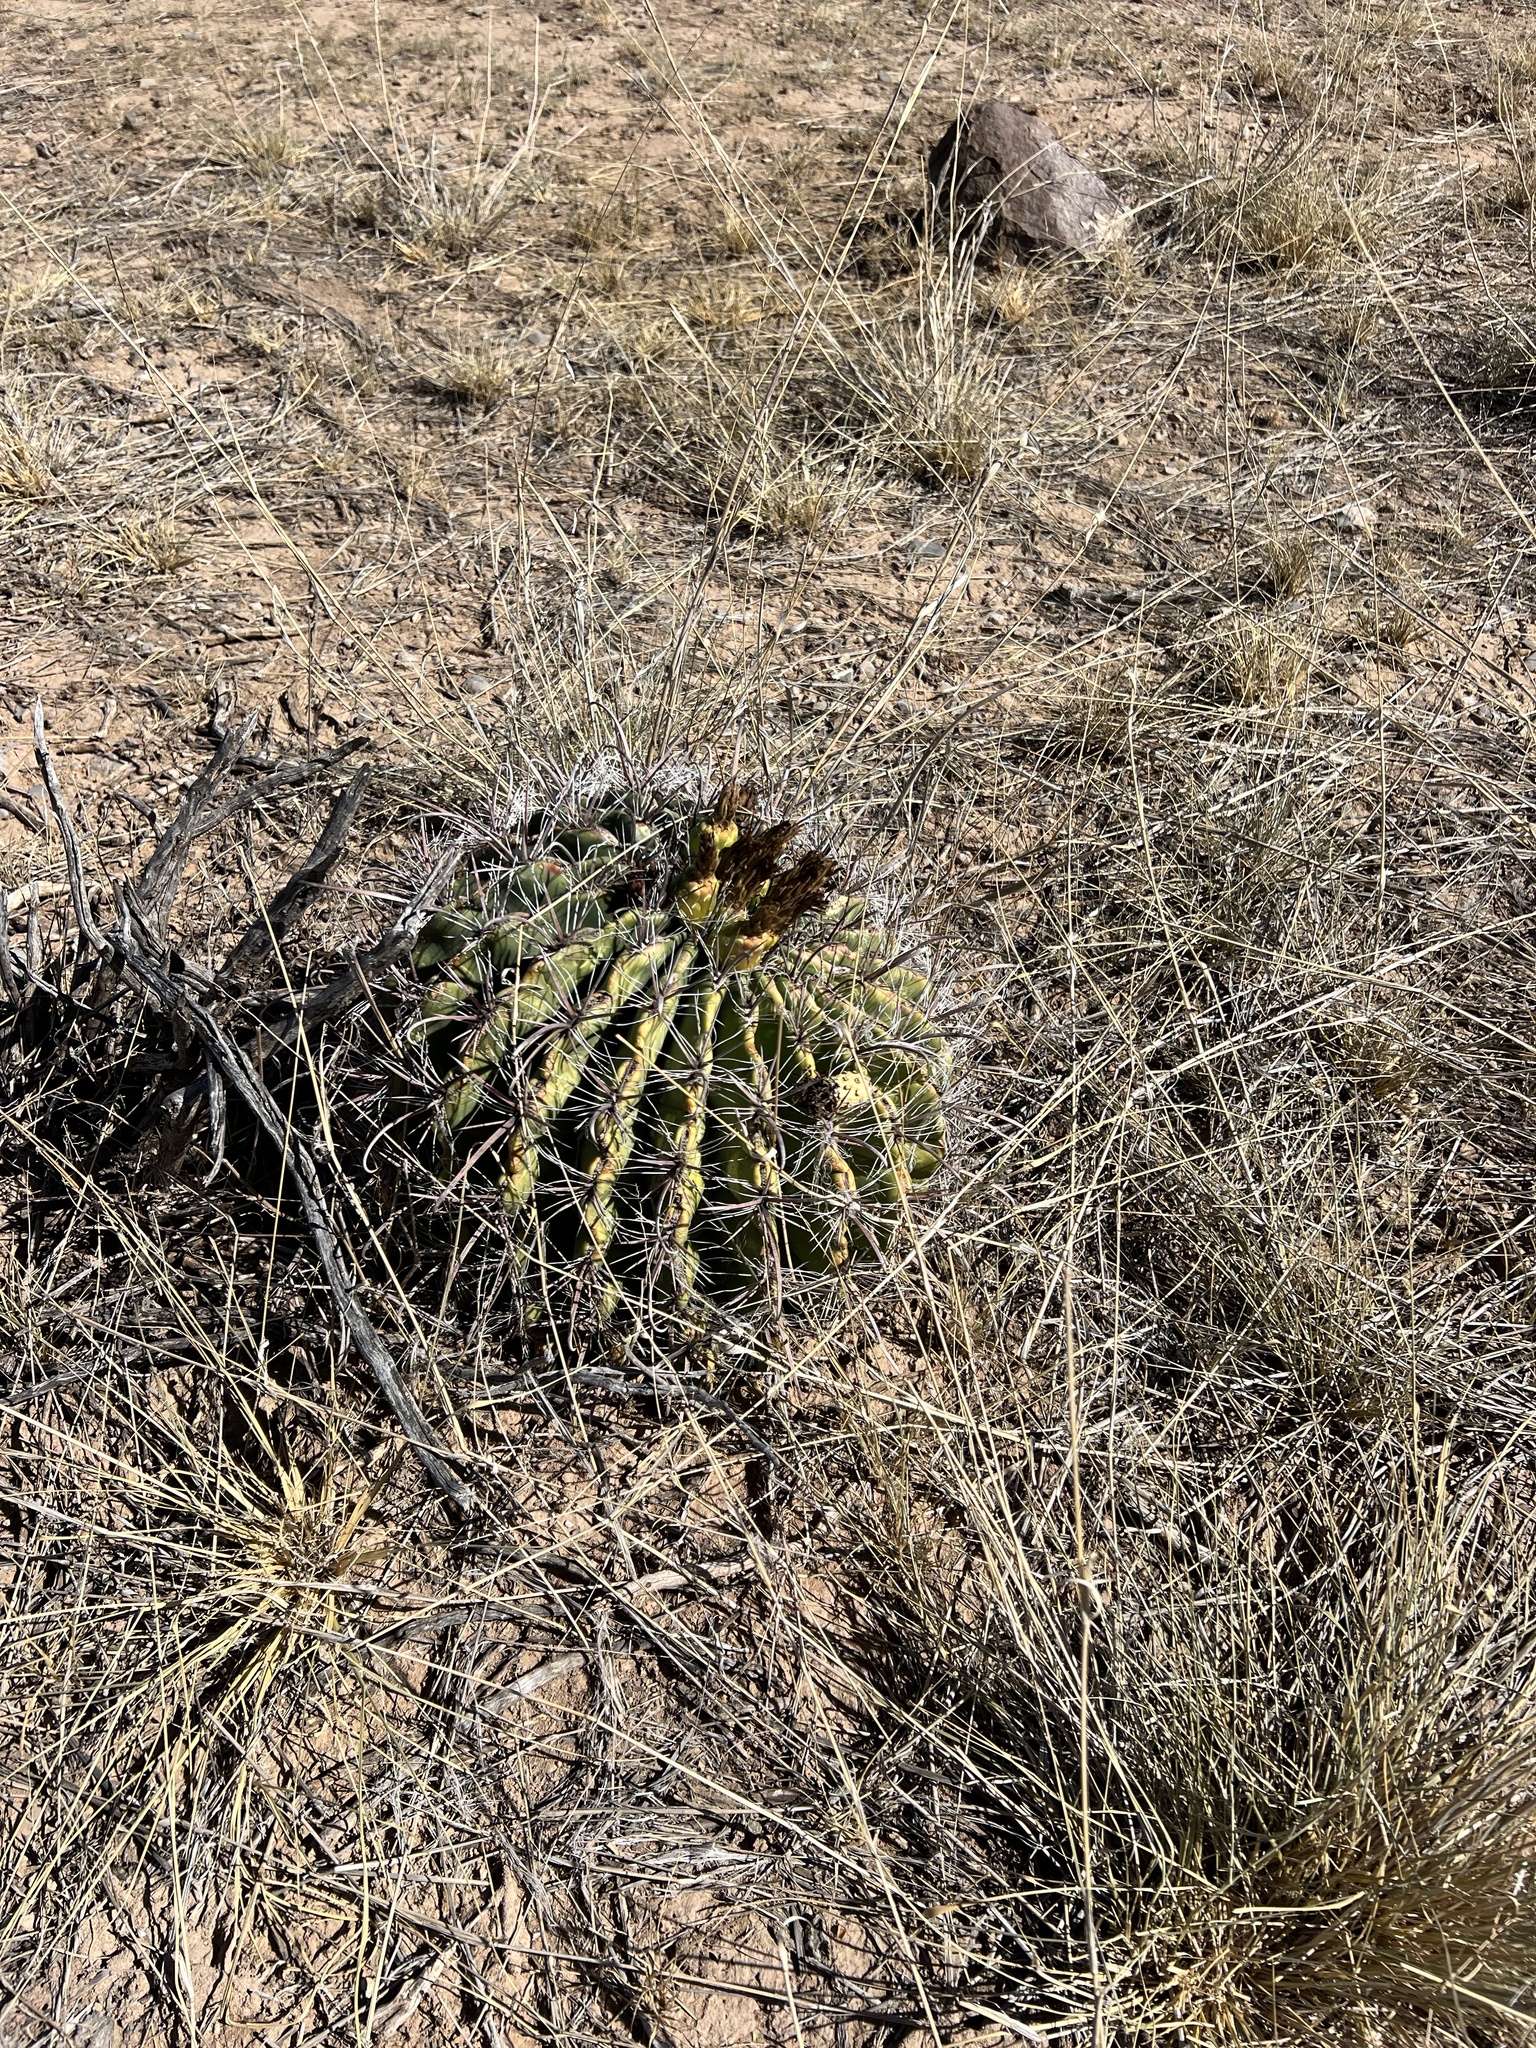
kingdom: Plantae
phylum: Tracheophyta
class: Magnoliopsida
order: Caryophyllales
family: Cactaceae
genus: Ferocactus
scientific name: Ferocactus wislizeni
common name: Candy barrel cactus
